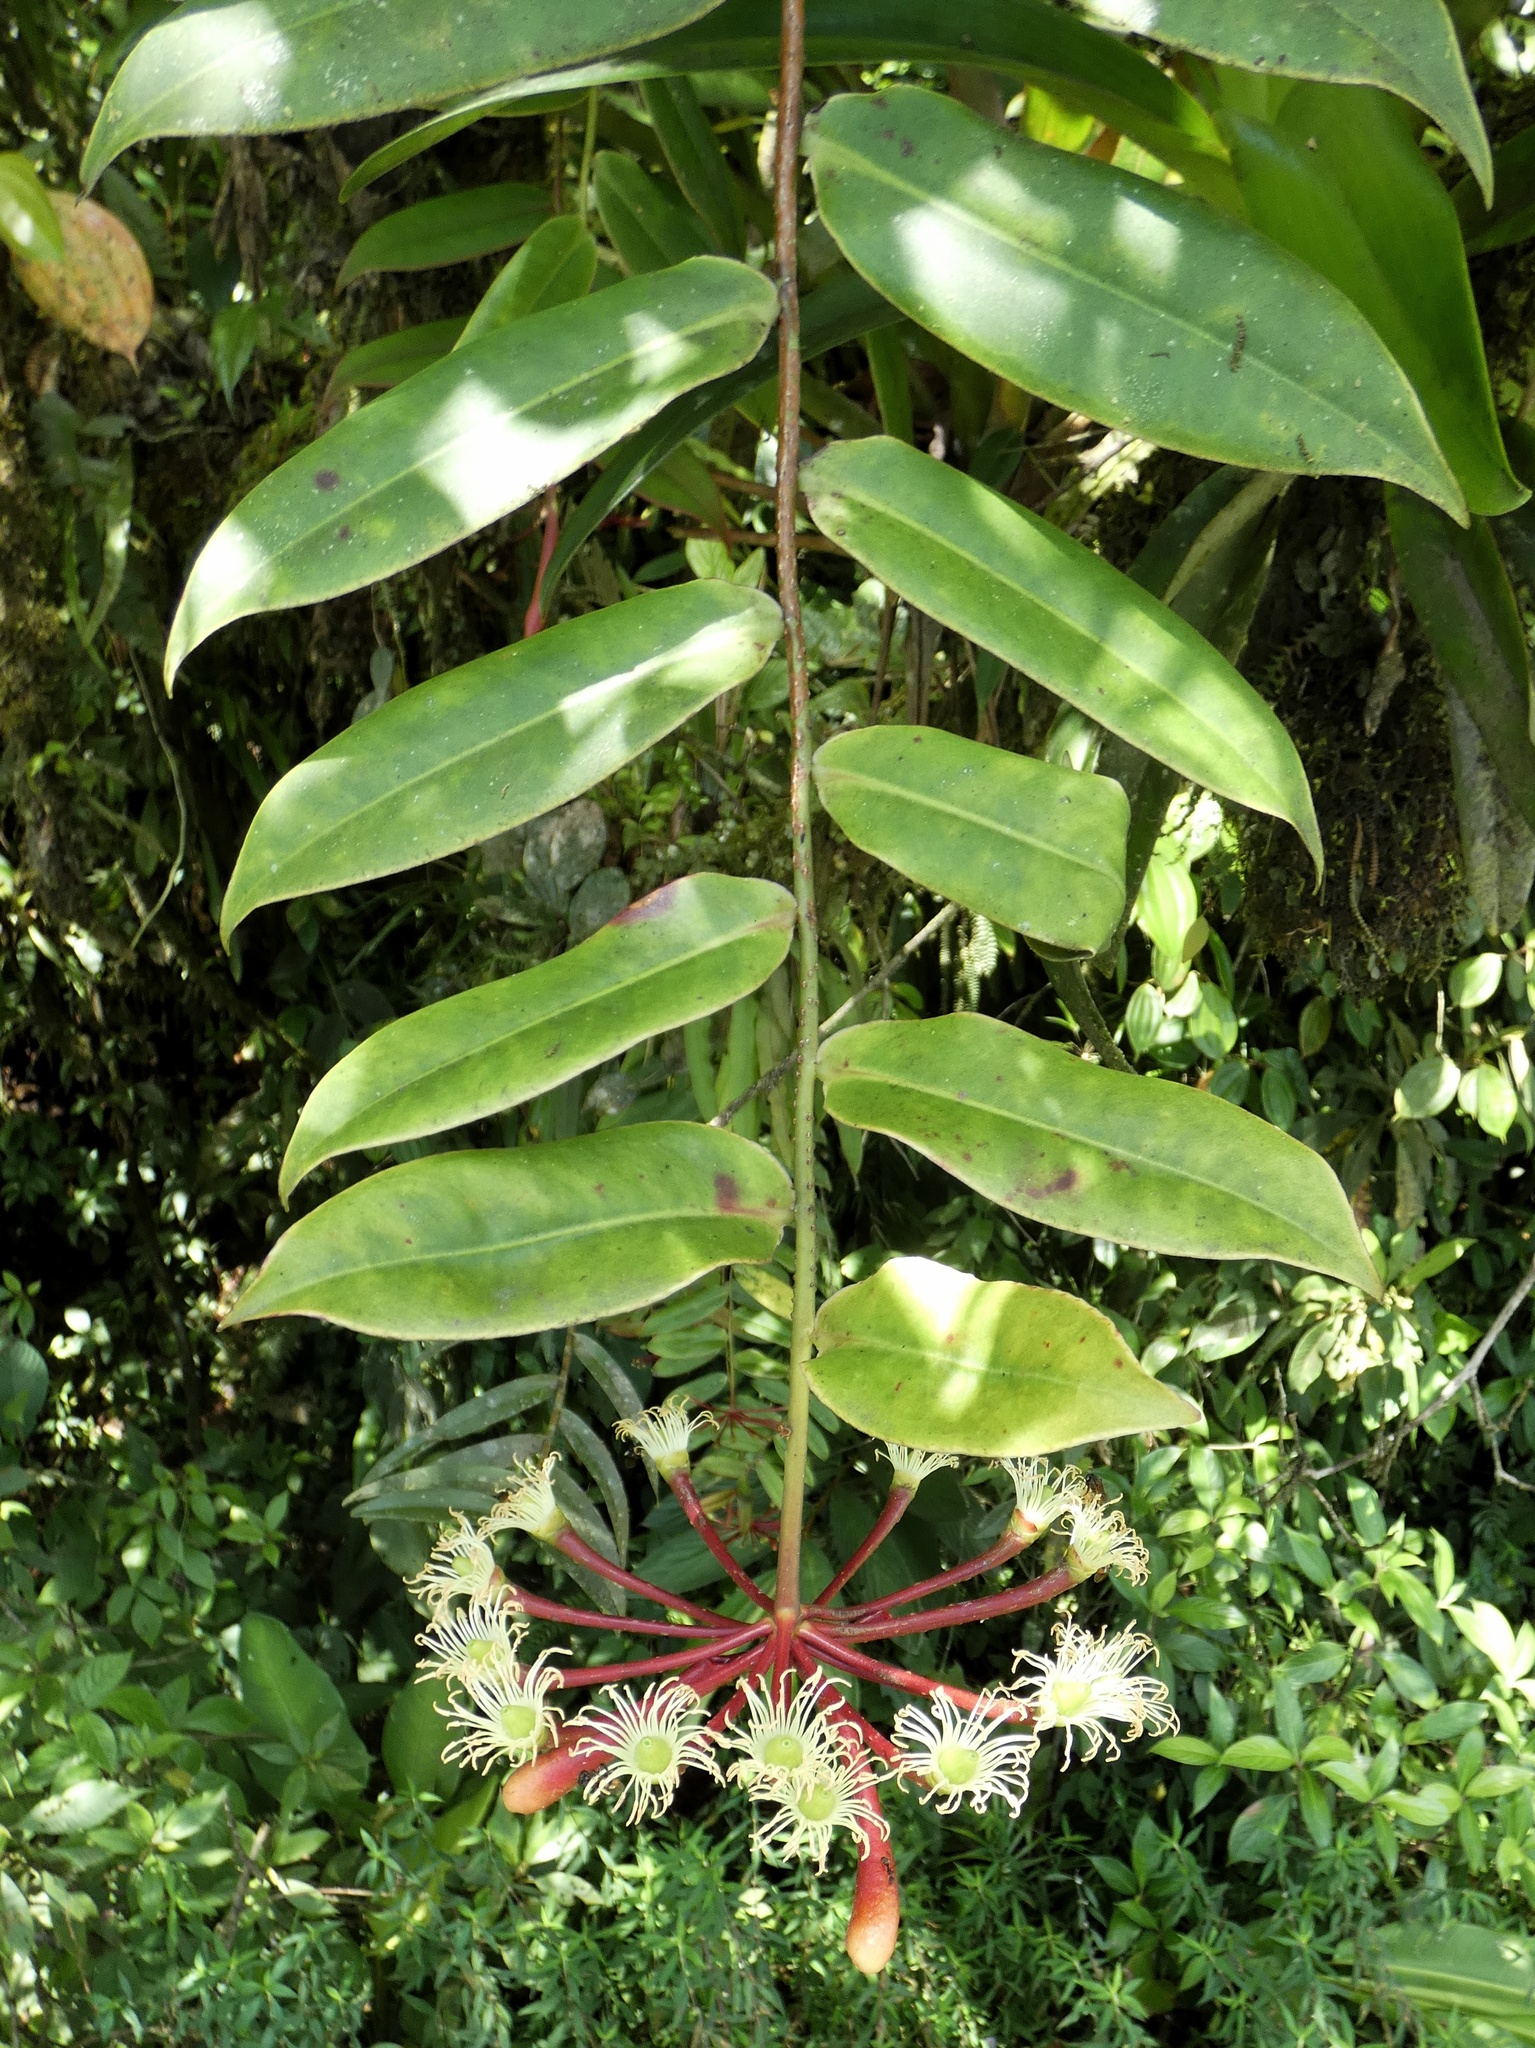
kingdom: Plantae
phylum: Tracheophyta
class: Magnoliopsida
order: Ericales
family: Marcgraviaceae
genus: Marcgravia
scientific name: Marcgravia brownei
